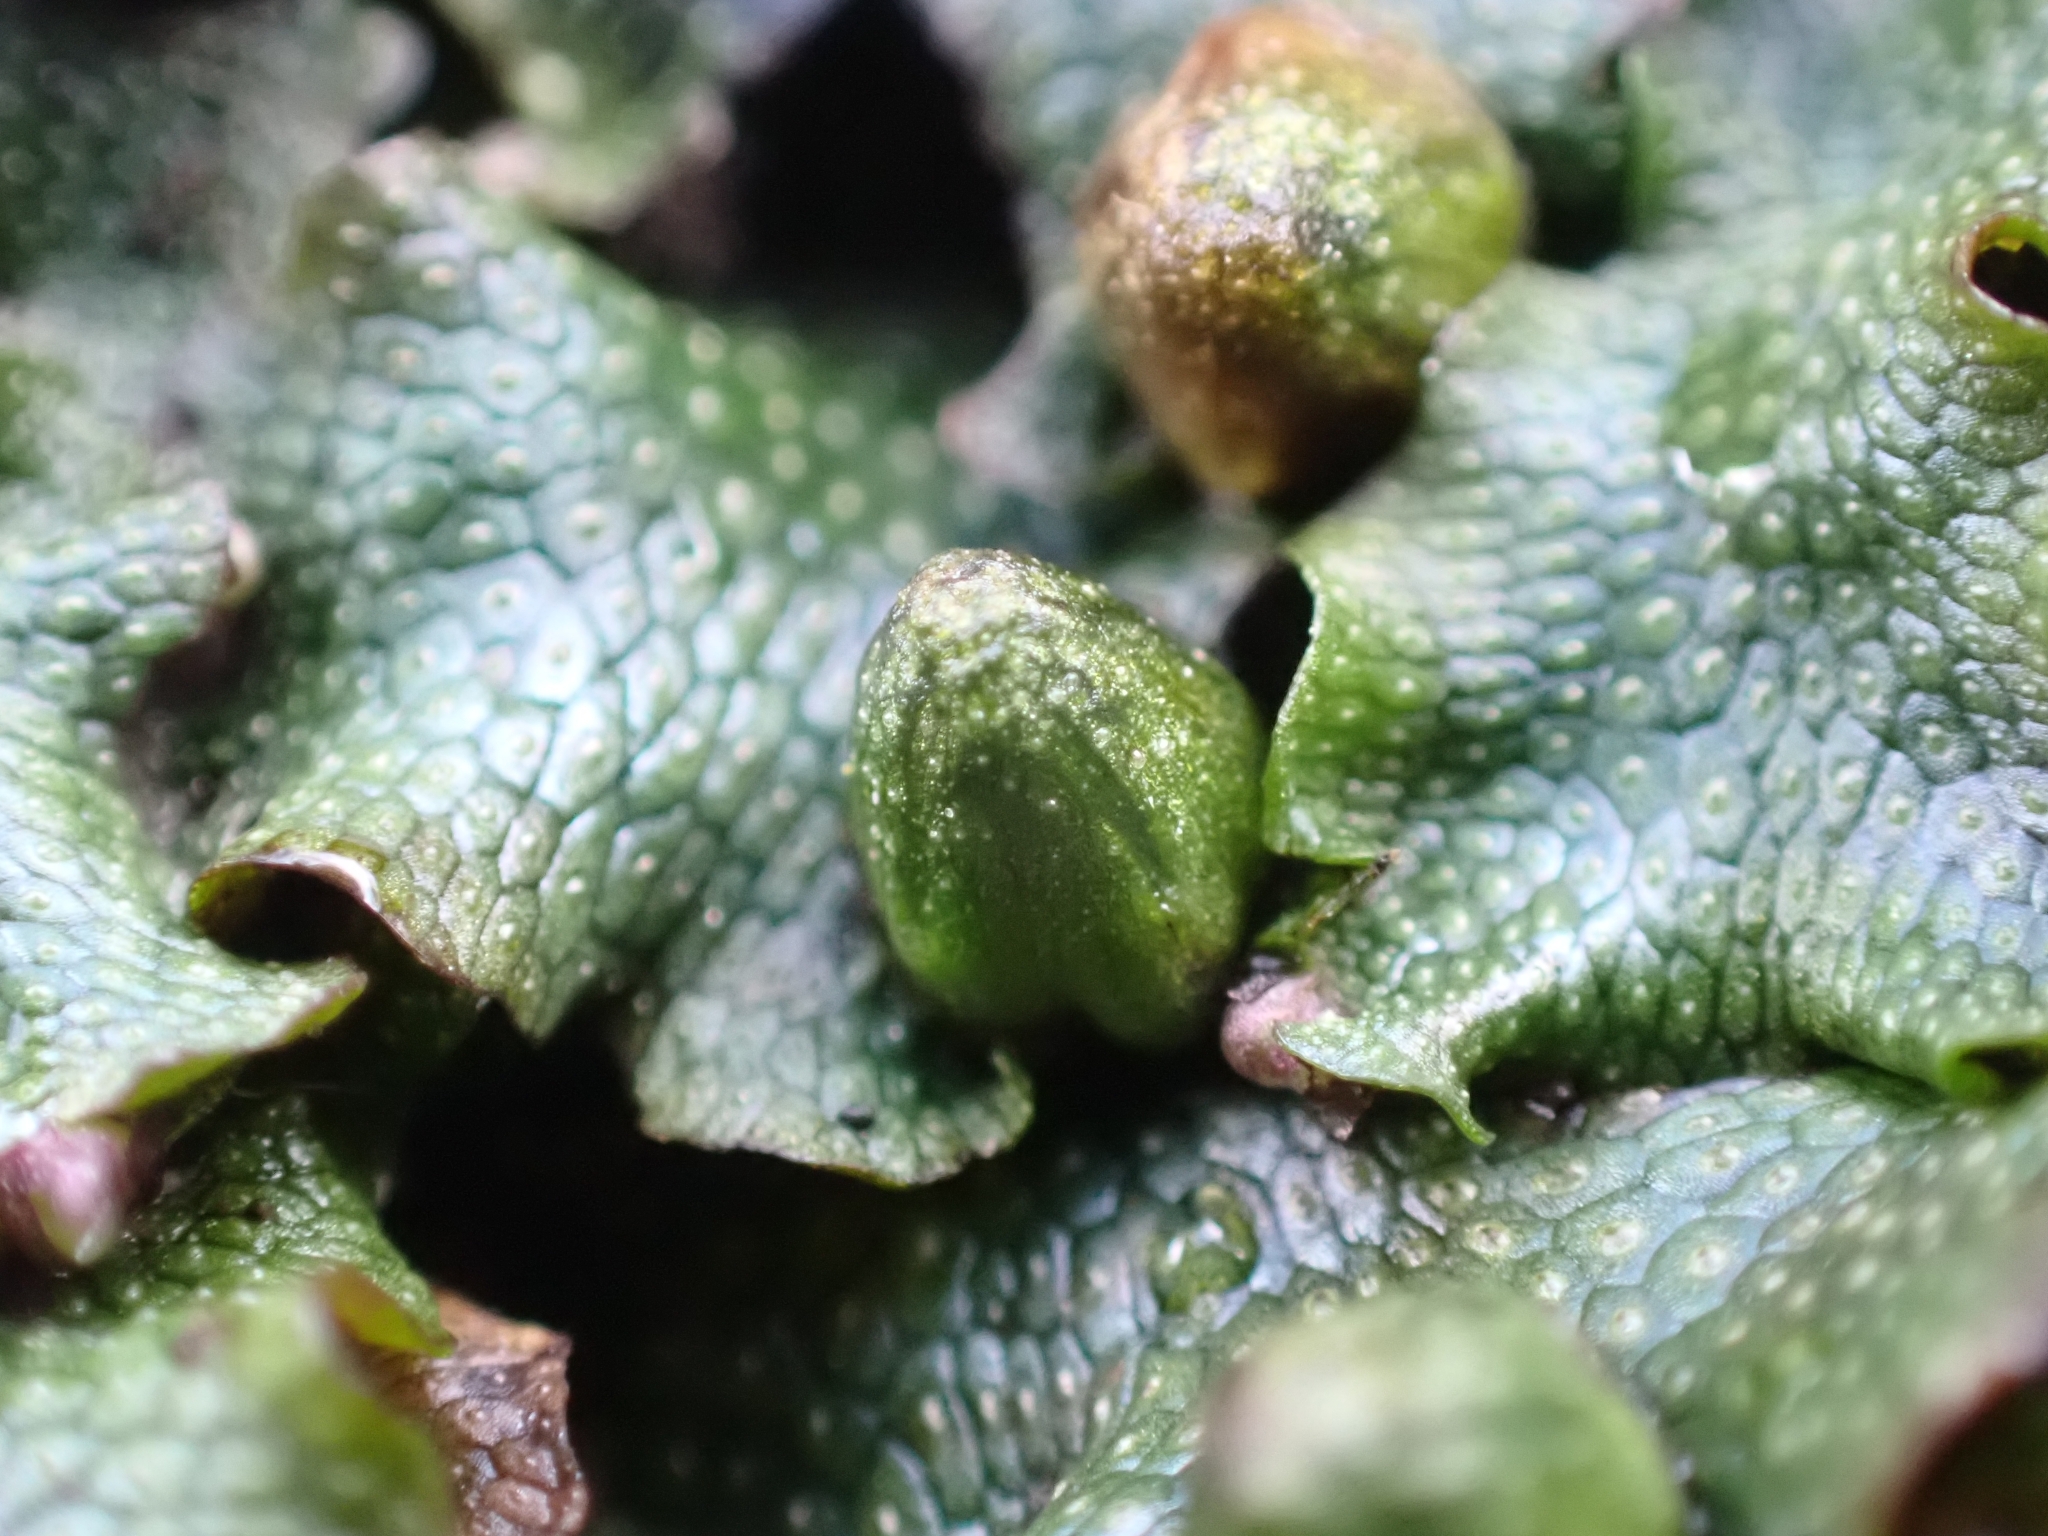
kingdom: Plantae
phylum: Marchantiophyta
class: Marchantiopsida
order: Marchantiales
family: Conocephalaceae
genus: Conocephalum
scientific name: Conocephalum salebrosum
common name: Cat-tongue liverwort
